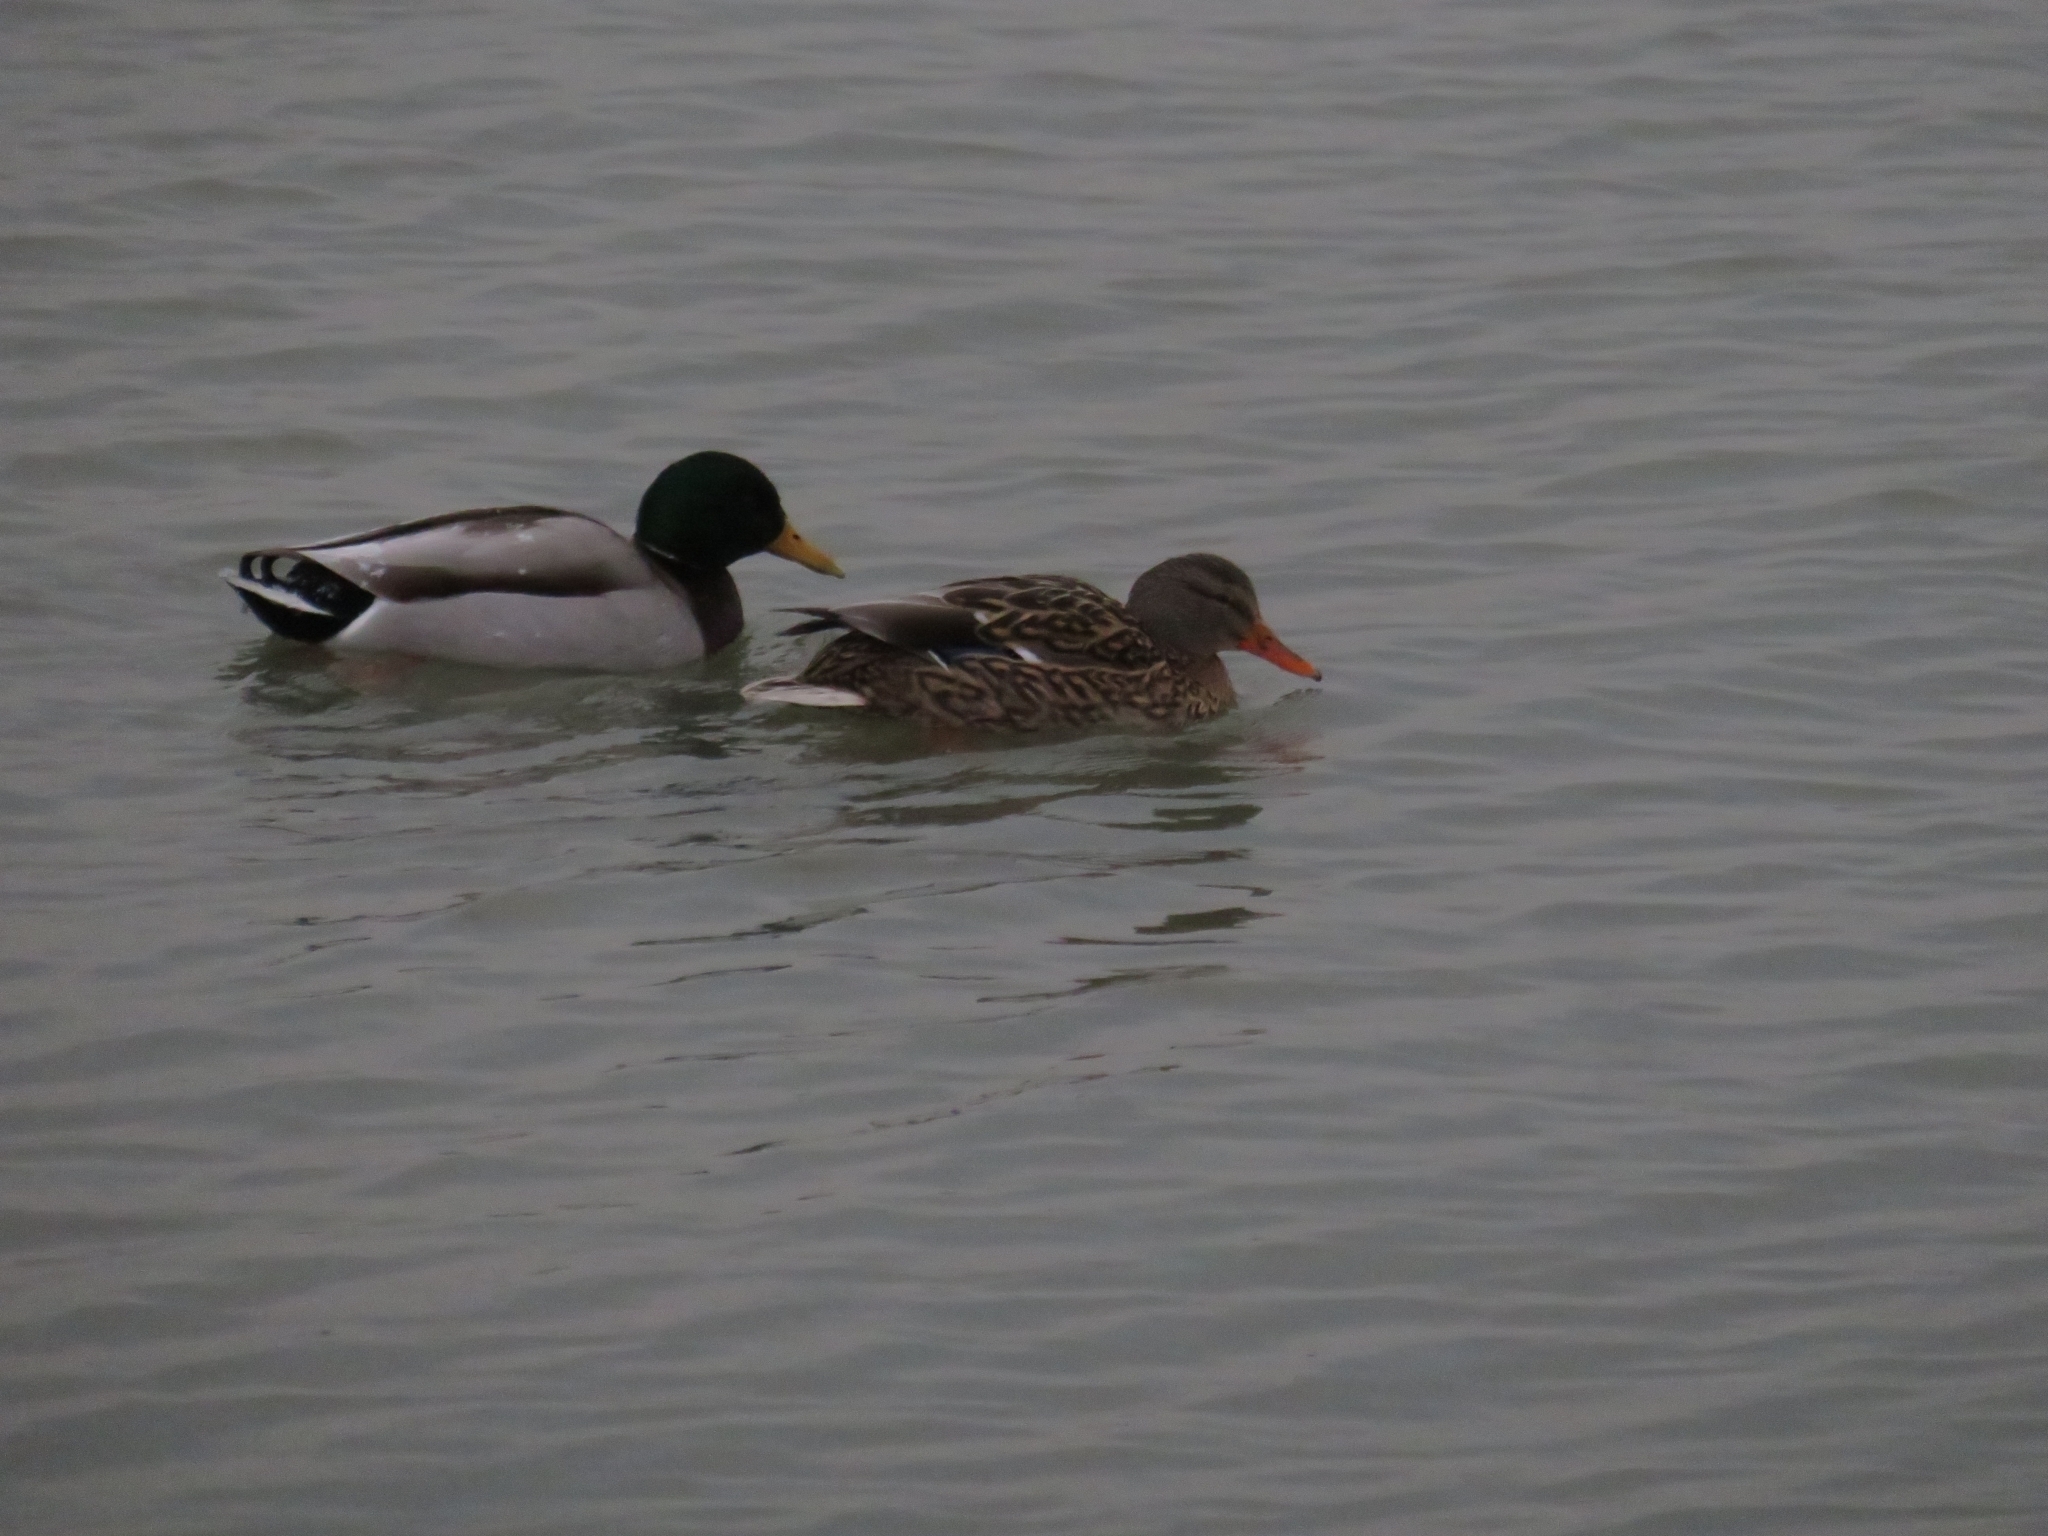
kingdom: Animalia
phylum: Chordata
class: Aves
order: Anseriformes
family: Anatidae
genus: Anas
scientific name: Anas platyrhynchos
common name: Mallard
